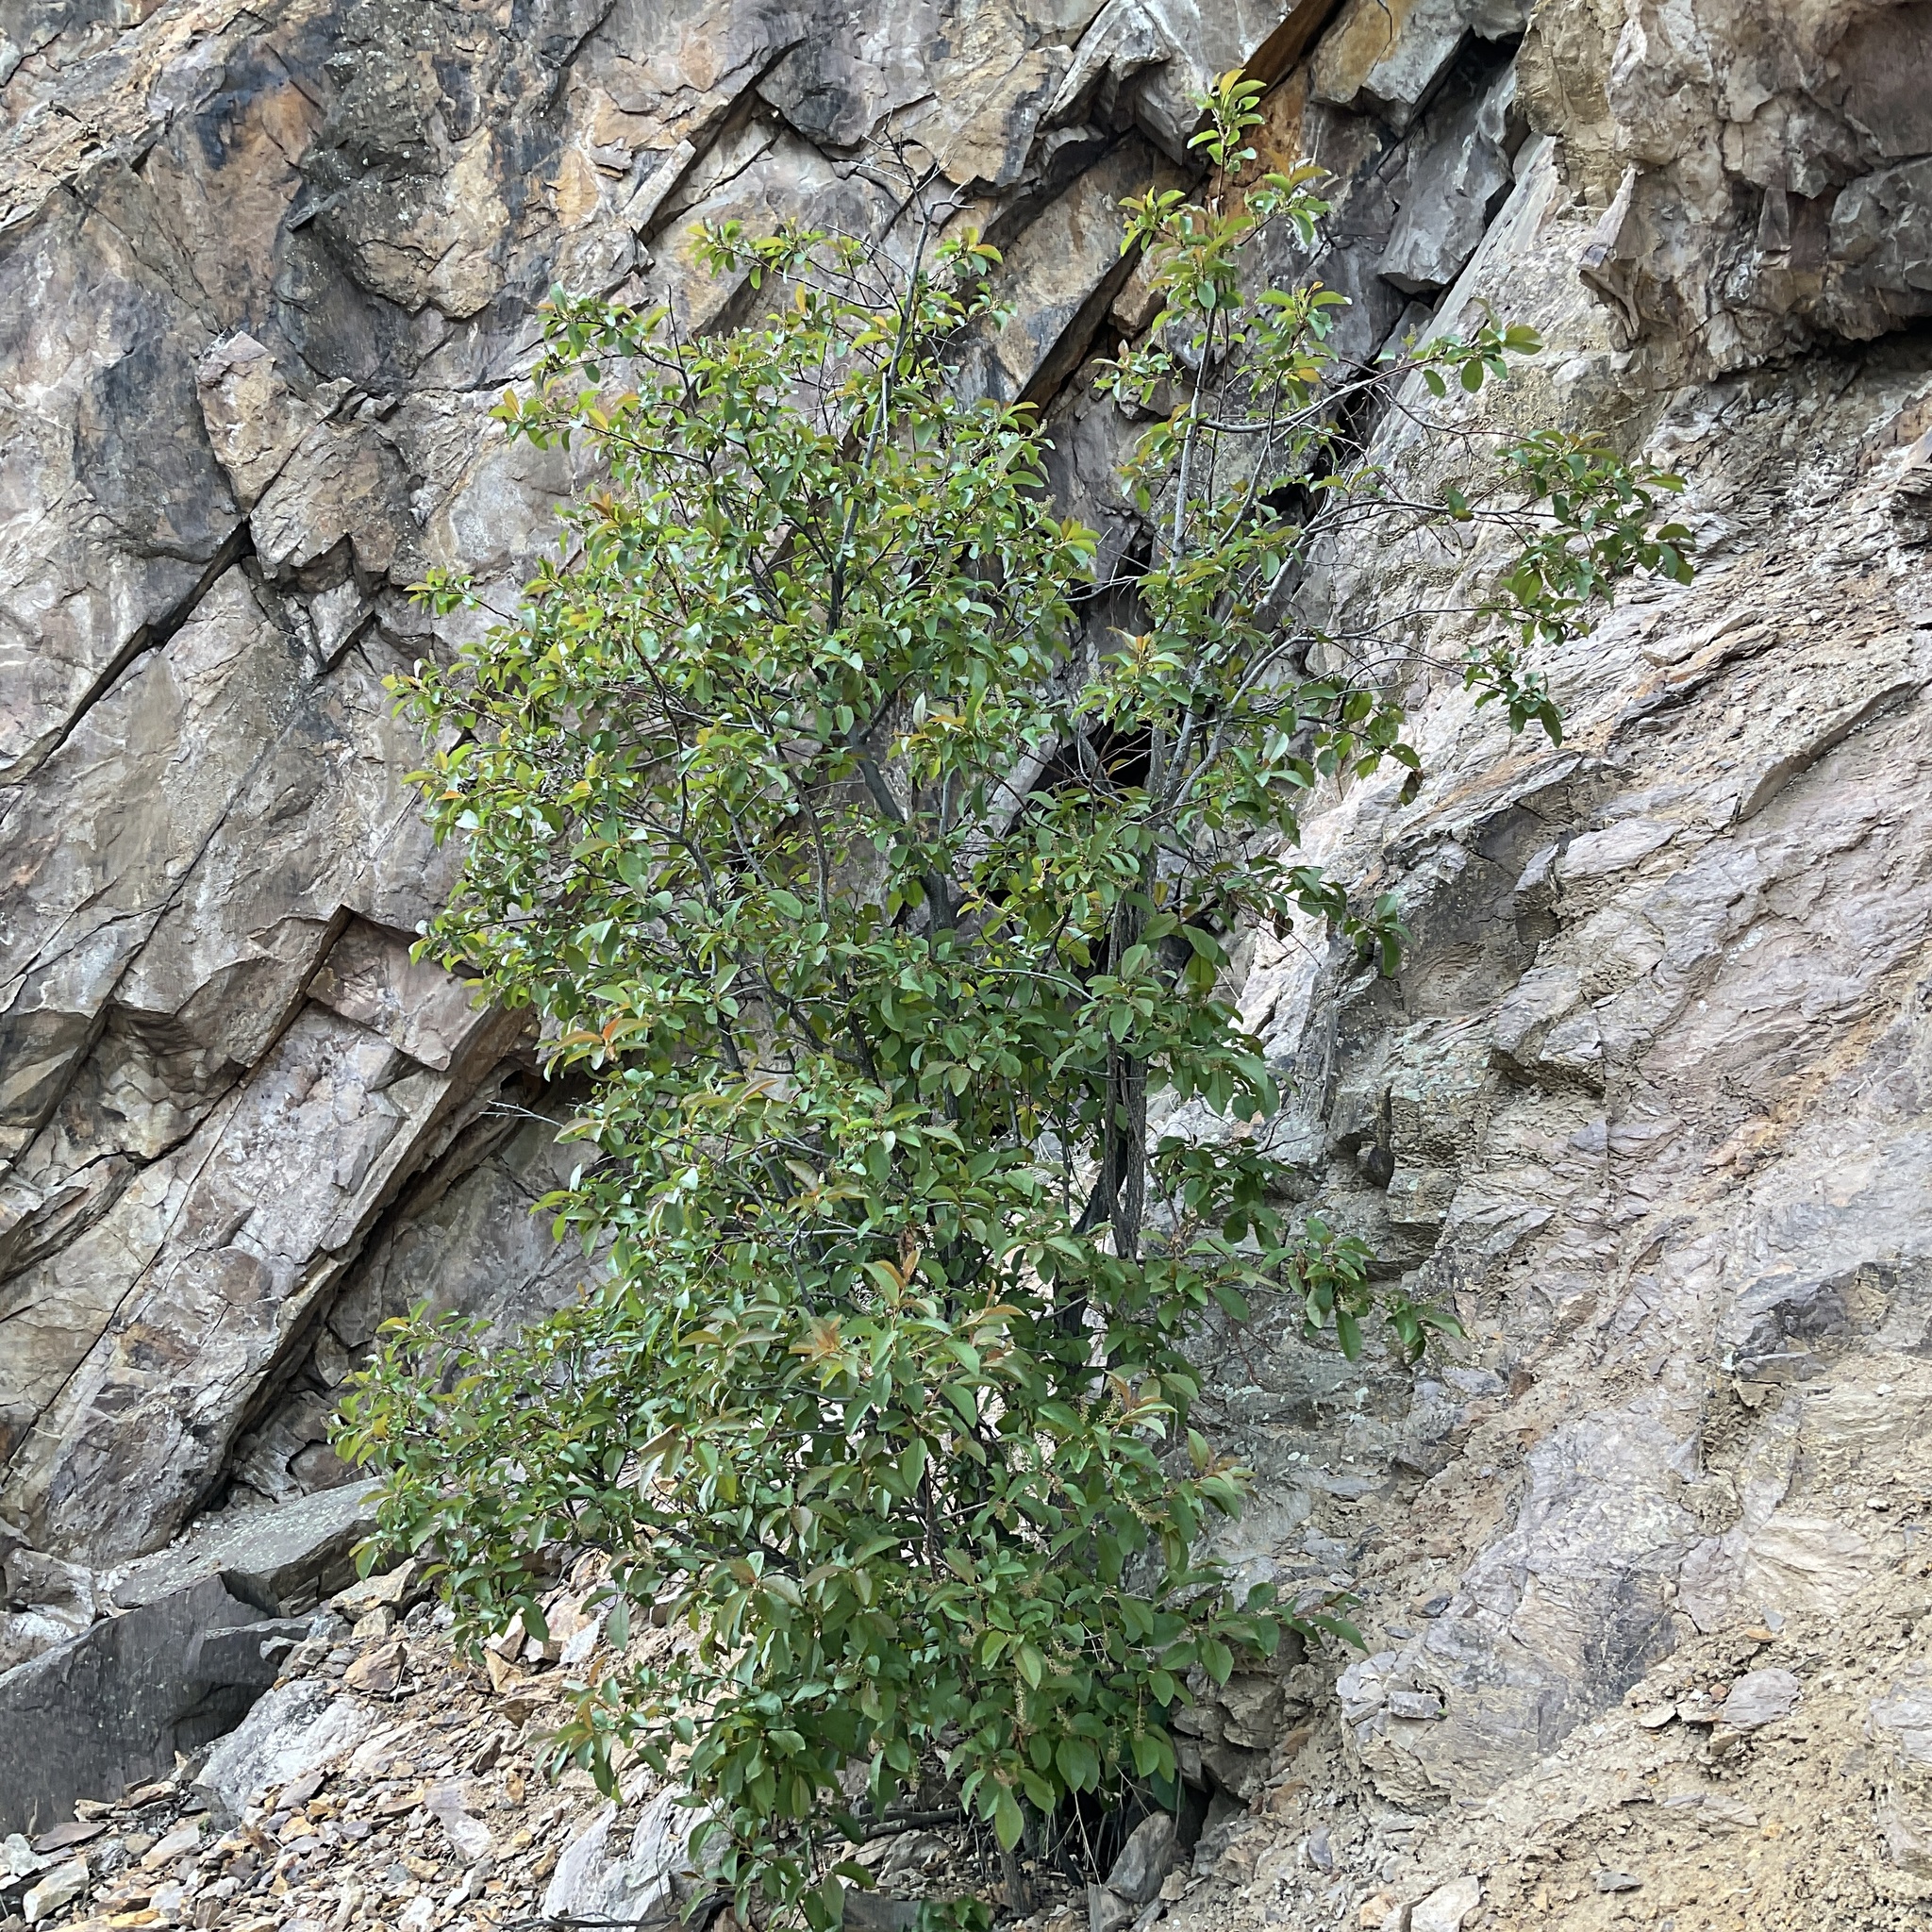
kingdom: Plantae
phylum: Tracheophyta
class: Magnoliopsida
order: Rosales
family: Rosaceae
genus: Prunus
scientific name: Prunus virginiana
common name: Chokecherry
